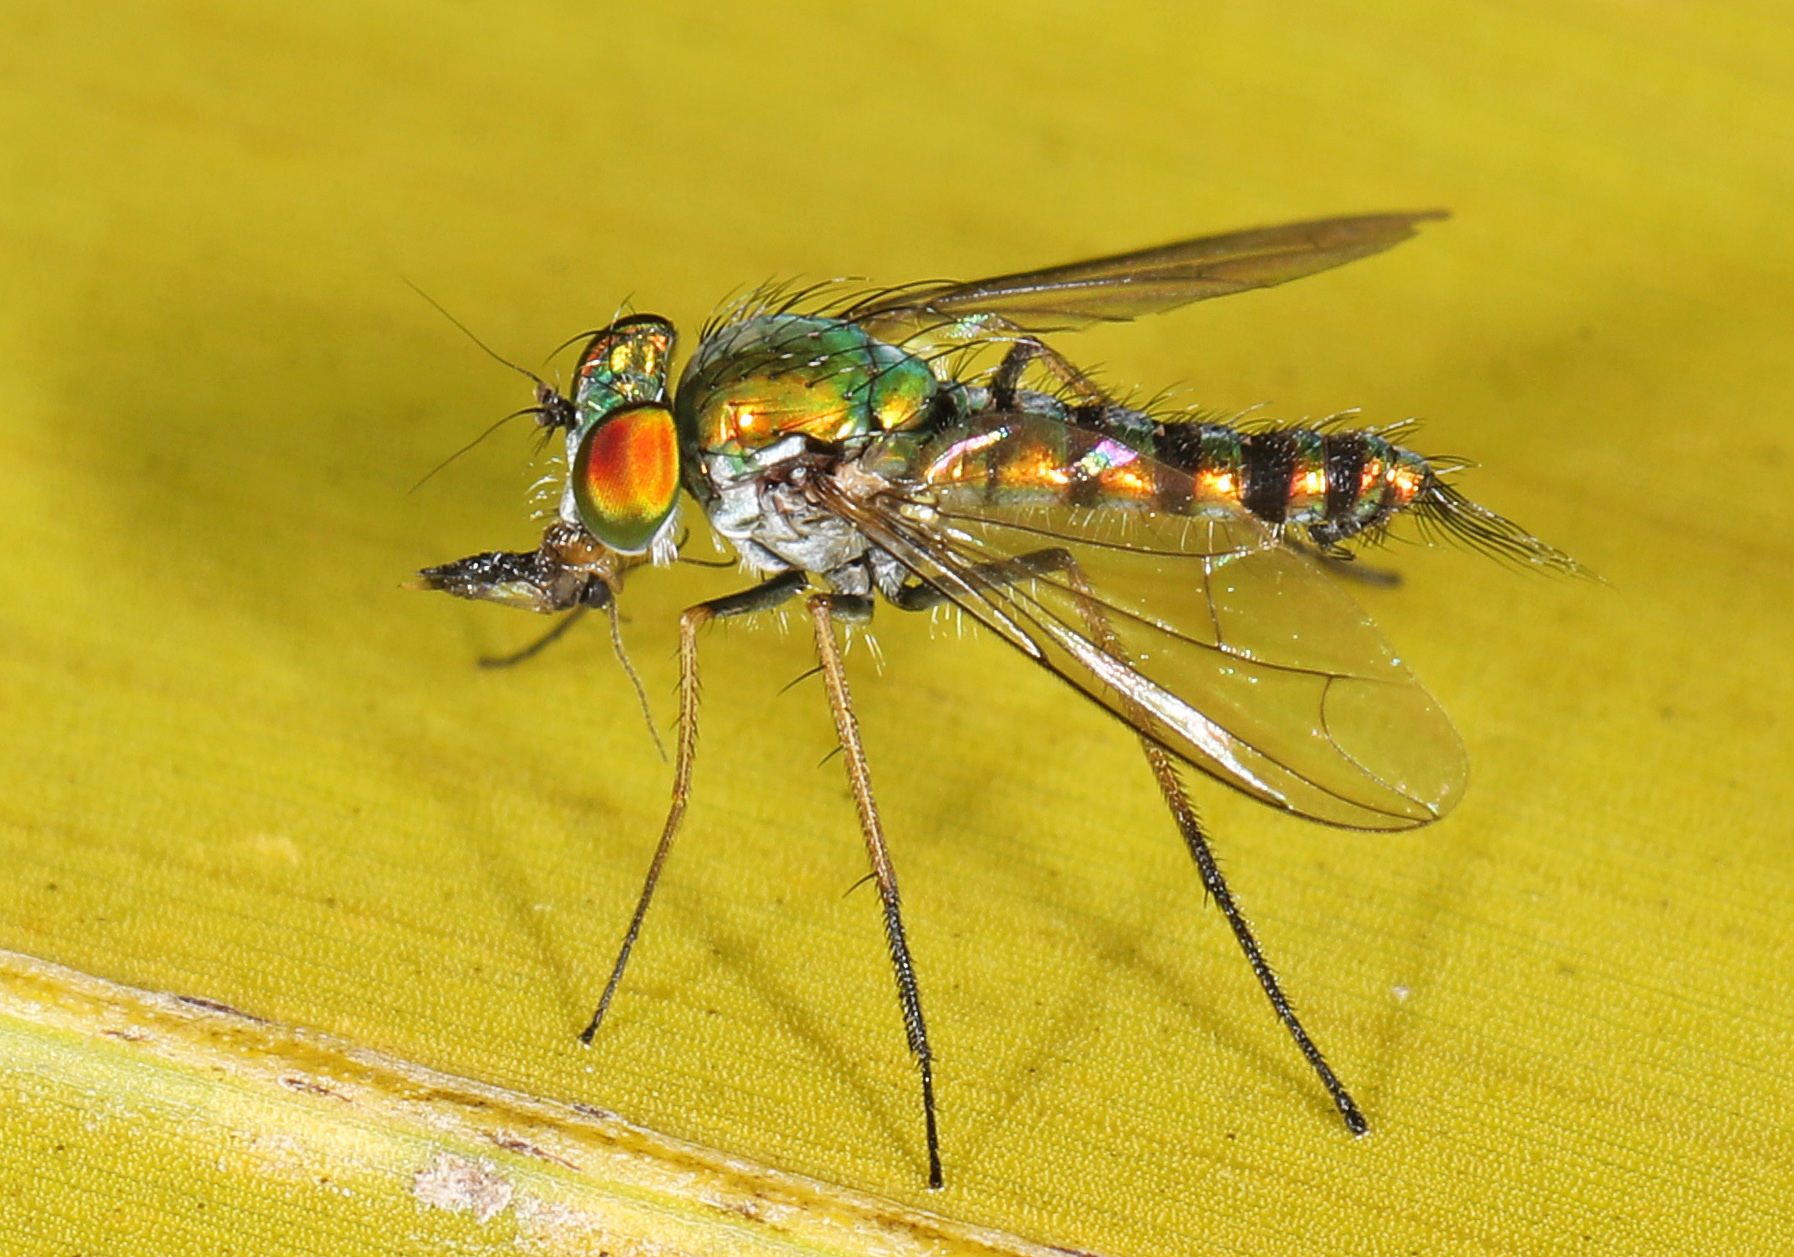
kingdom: Animalia
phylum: Arthropoda
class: Insecta
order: Diptera
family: Dolichopodidae
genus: Condylostylus
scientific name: Condylostylus graenicheri
